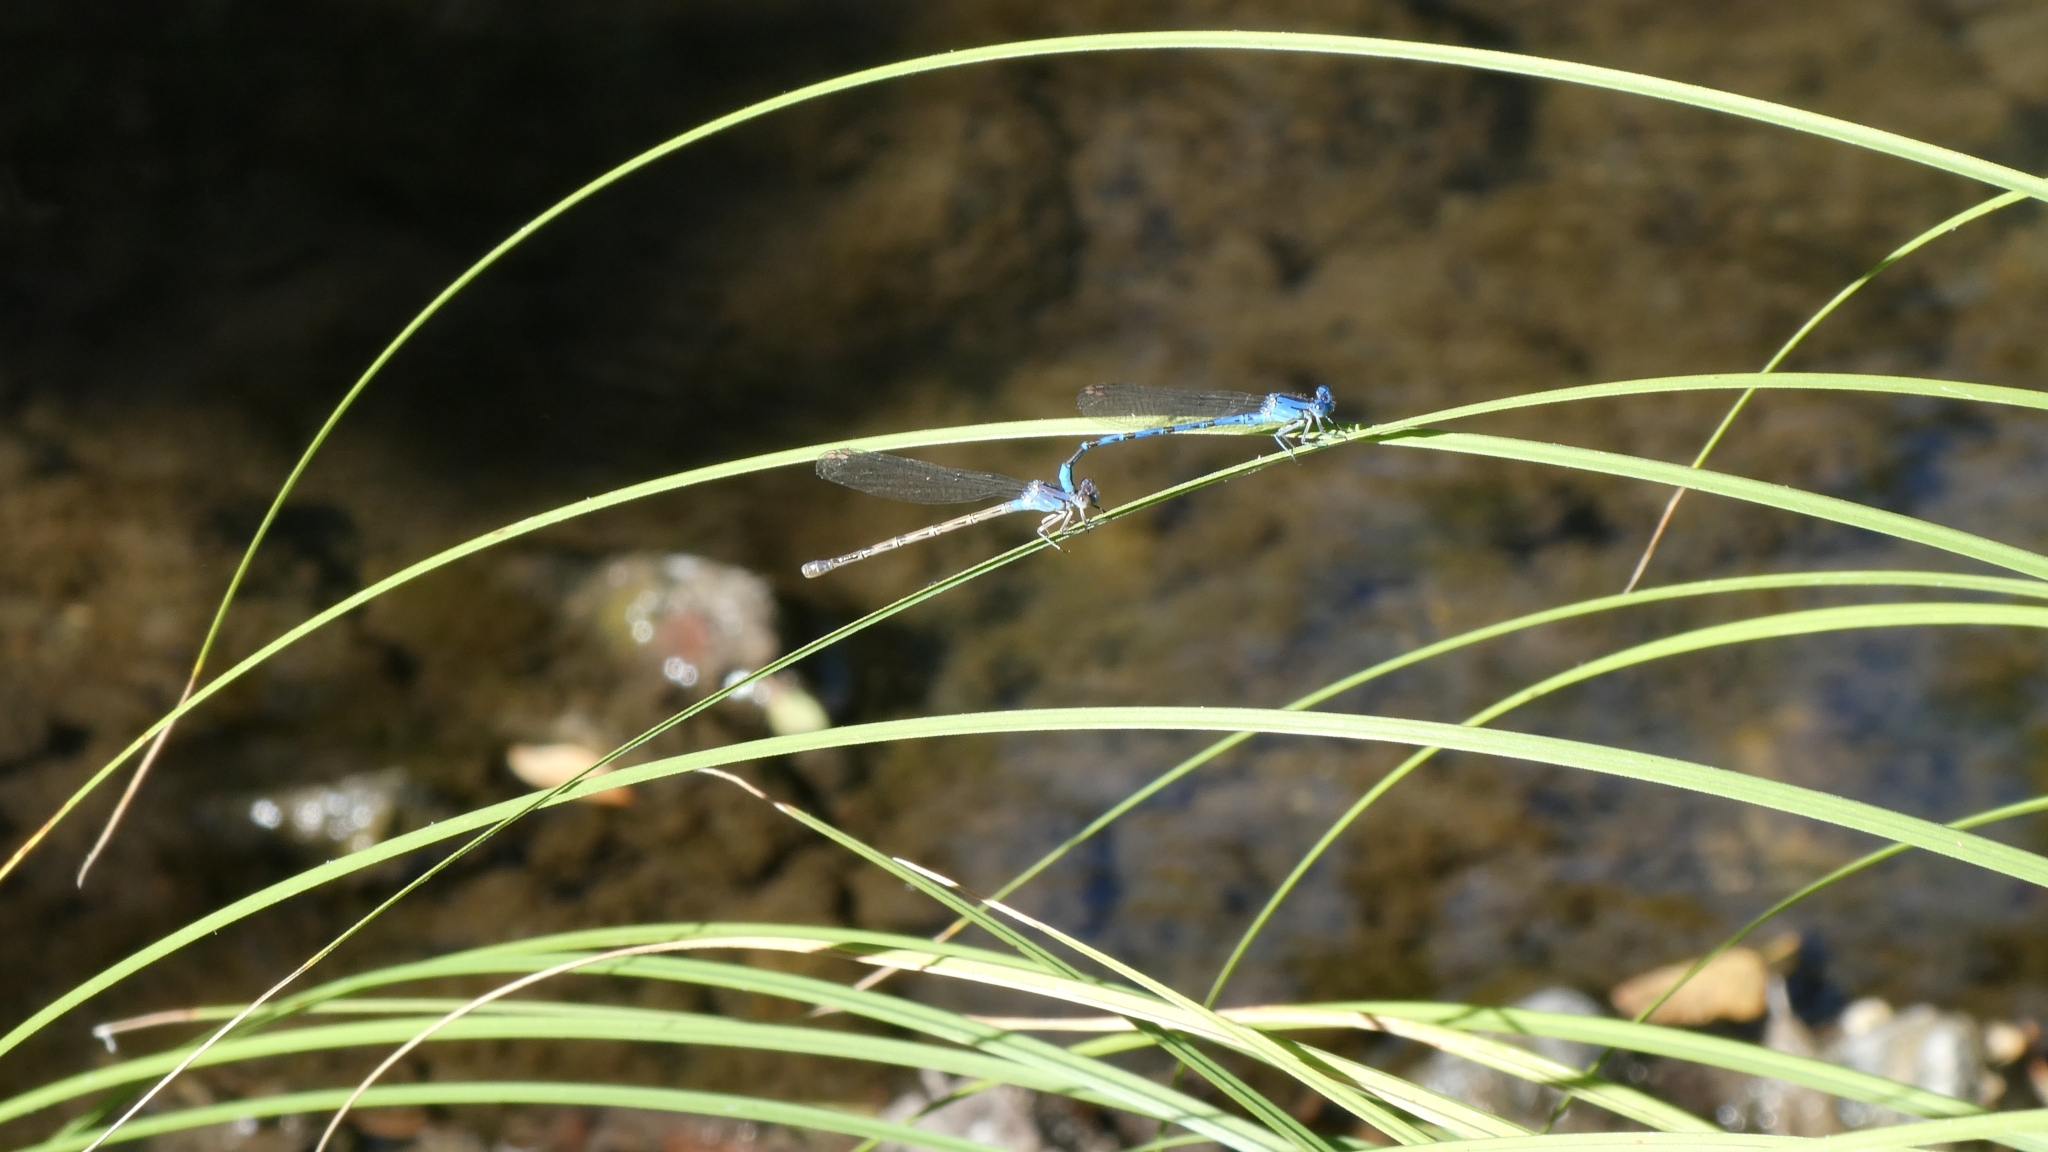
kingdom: Animalia
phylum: Arthropoda
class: Insecta
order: Odonata
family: Coenagrionidae
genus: Argia
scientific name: Argia vivida
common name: Vivid dancer
